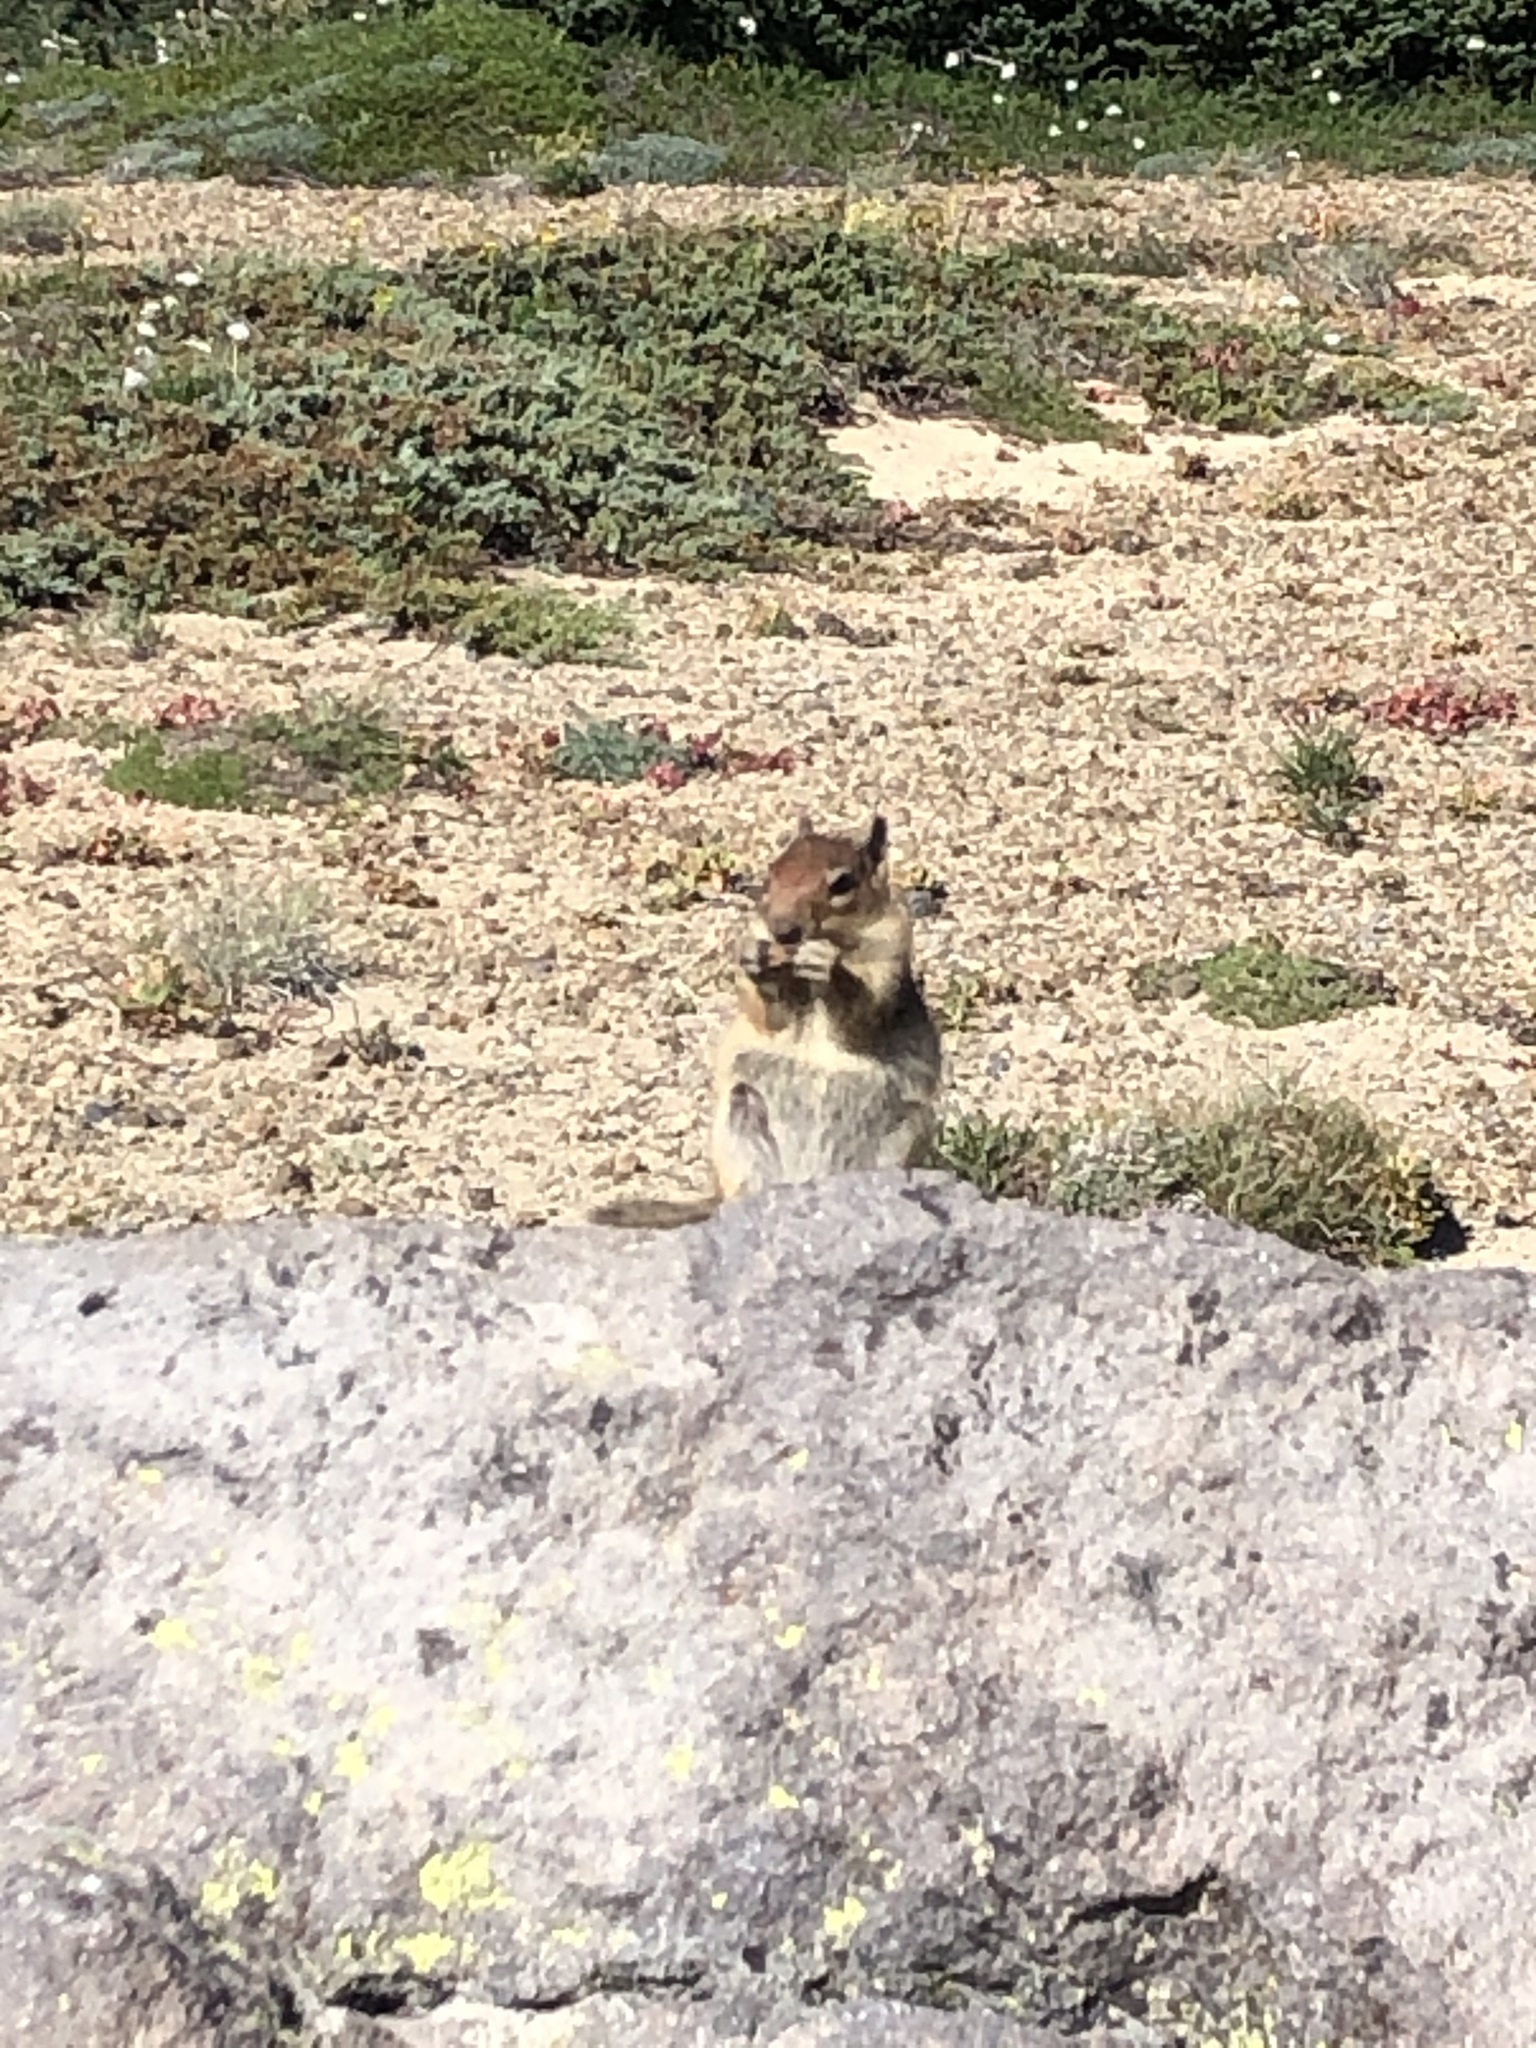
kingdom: Animalia
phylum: Chordata
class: Mammalia
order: Rodentia
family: Sciuridae
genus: Callospermophilus
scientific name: Callospermophilus saturatus
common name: Cascade golden-mantled ground squirrel
